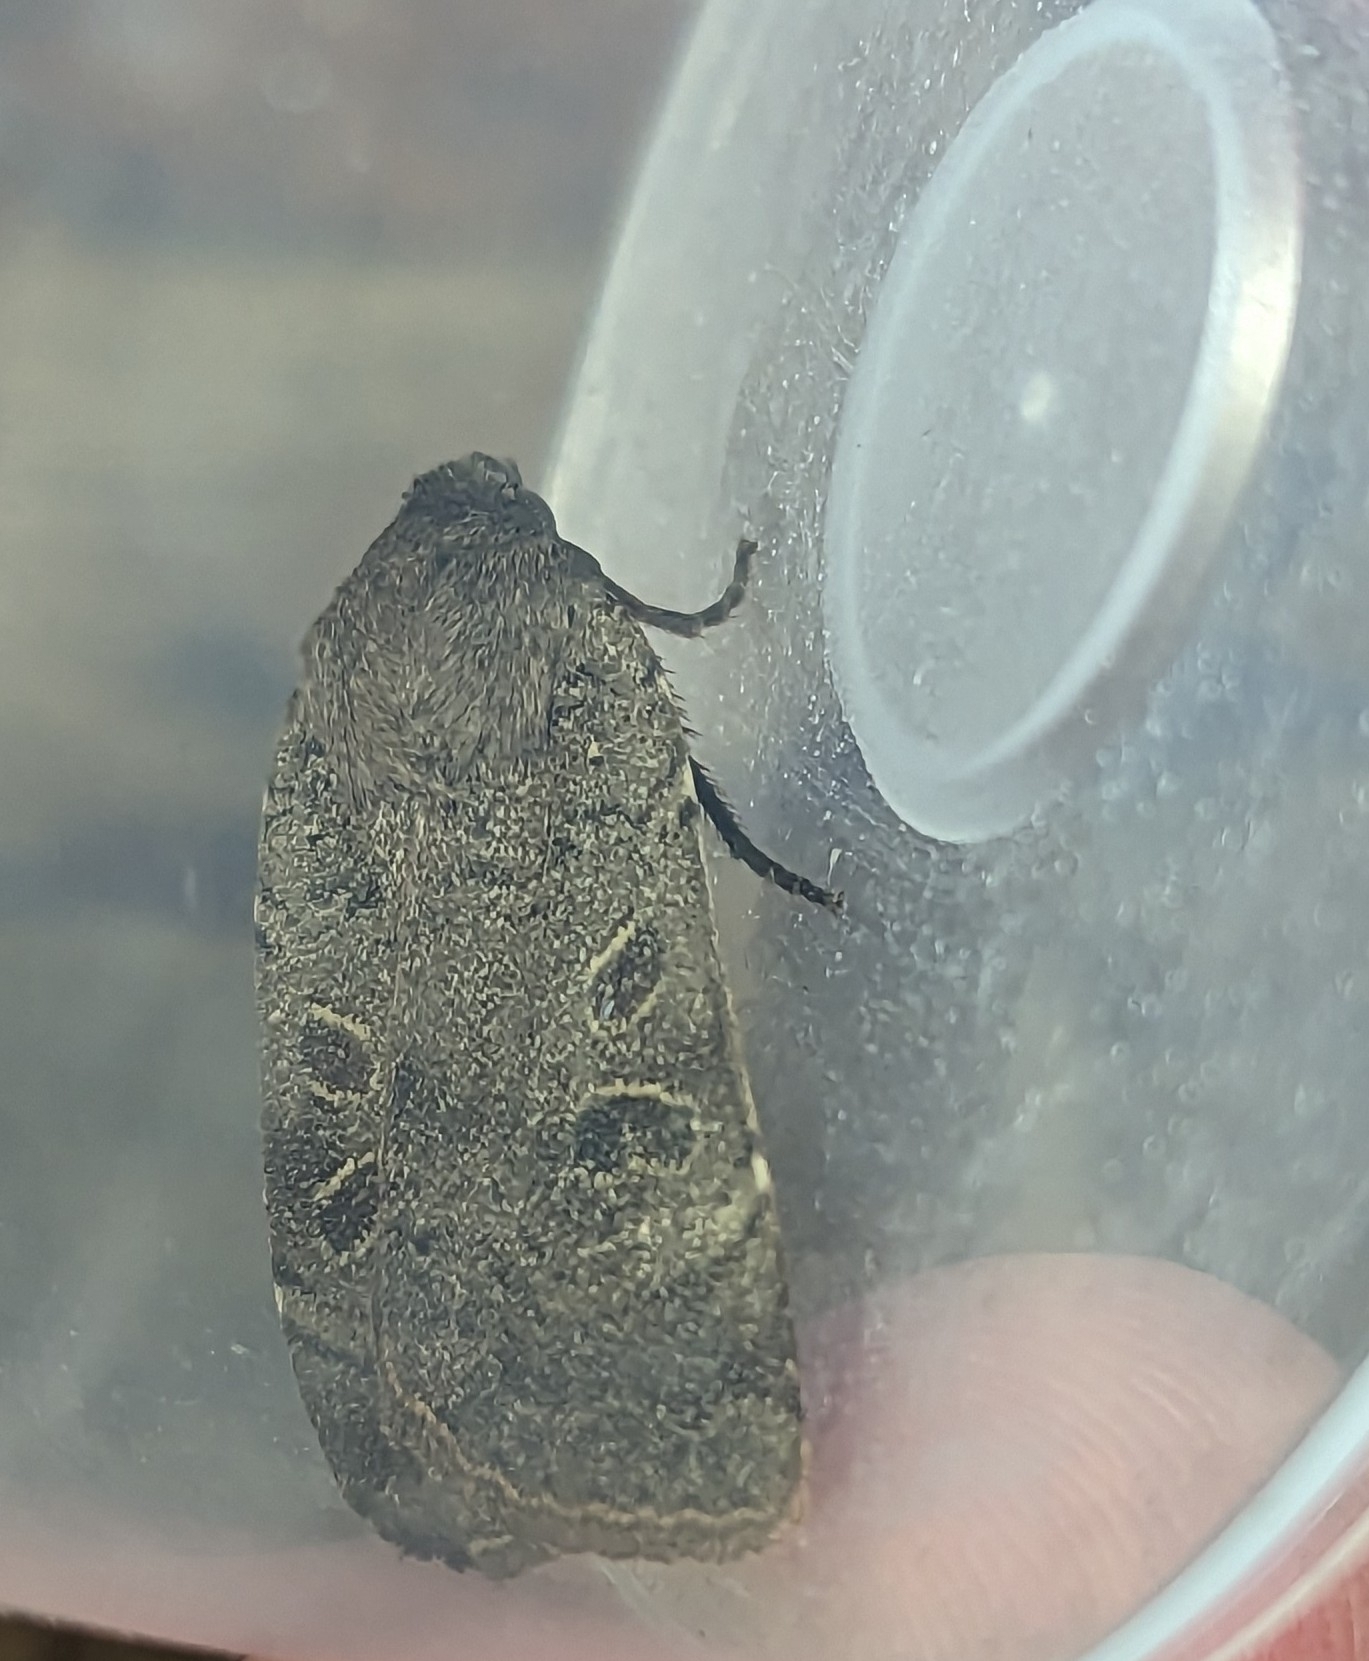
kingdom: Animalia
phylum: Arthropoda
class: Insecta
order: Lepidoptera
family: Noctuidae
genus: Noctua
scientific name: Noctua comes
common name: Lesser yellow underwing
